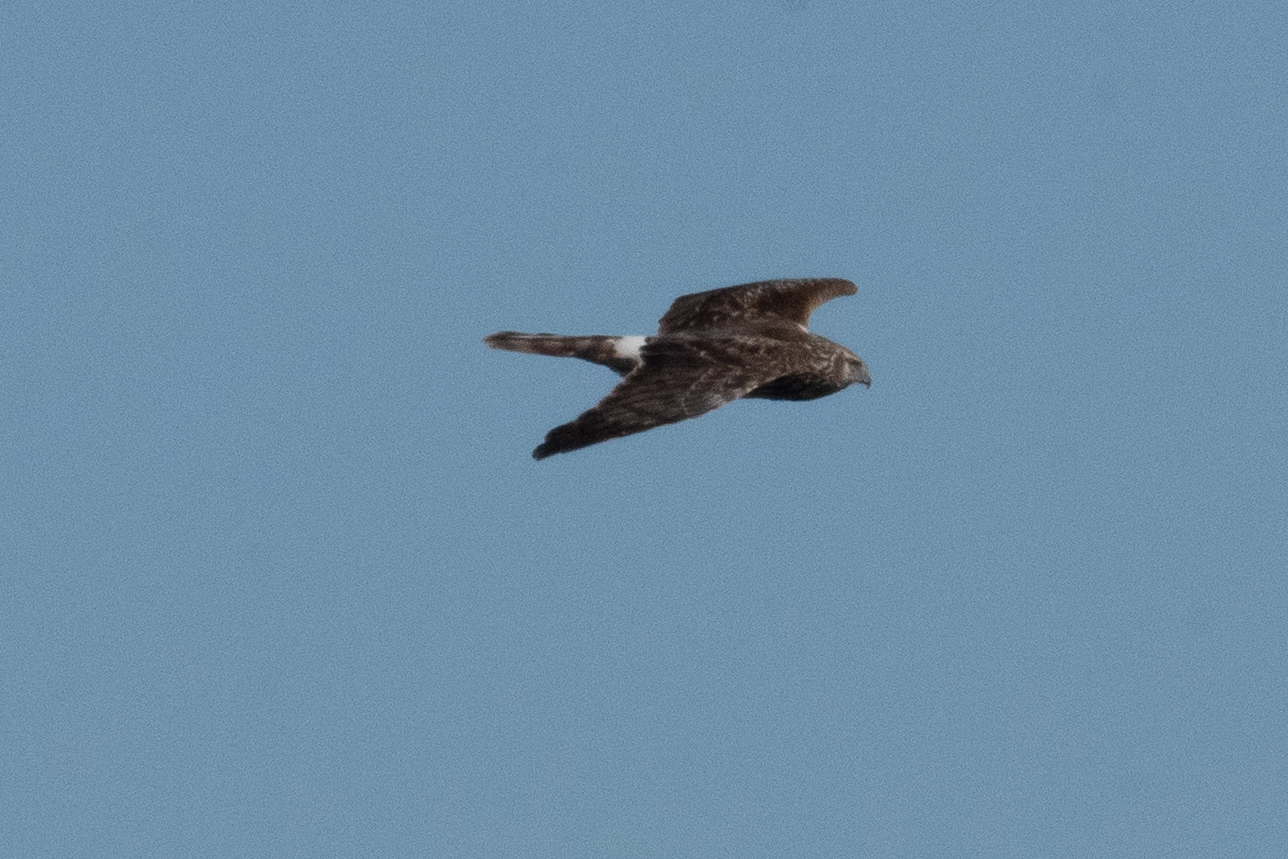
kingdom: Animalia
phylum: Chordata
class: Aves
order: Accipitriformes
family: Accipitridae
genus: Circus
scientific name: Circus cyaneus
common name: Hen harrier
